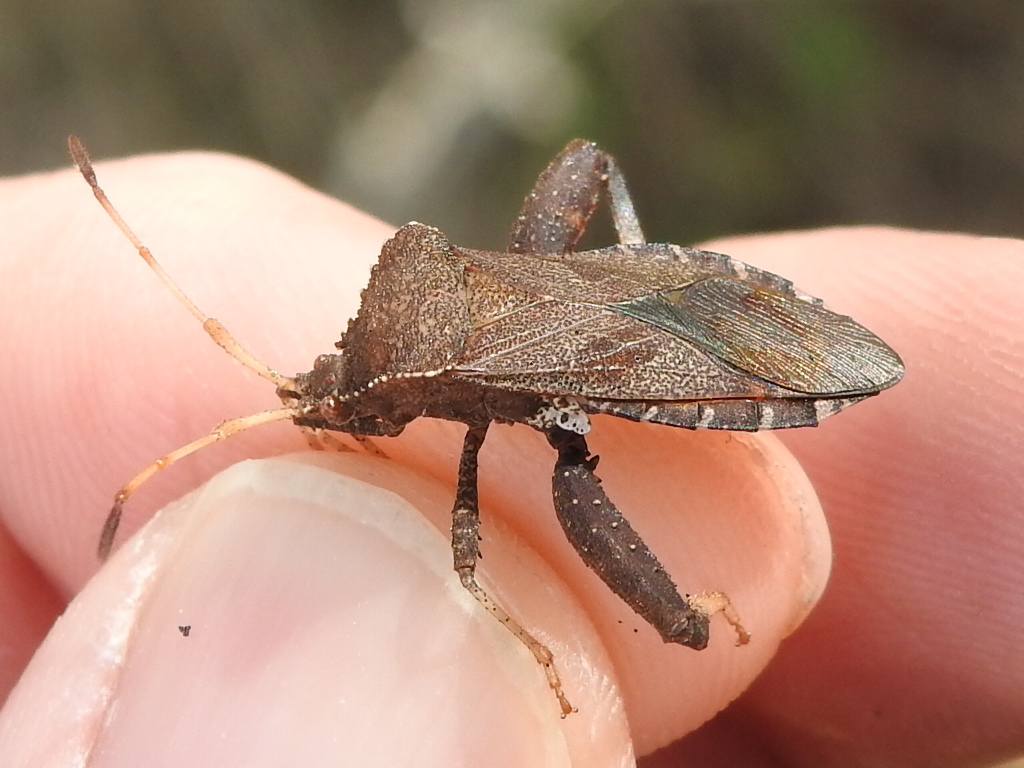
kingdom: Animalia
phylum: Arthropoda
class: Insecta
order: Hemiptera
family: Coreidae
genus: Euthochtha
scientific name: Euthochtha galeator
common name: Helmeted squash bug
